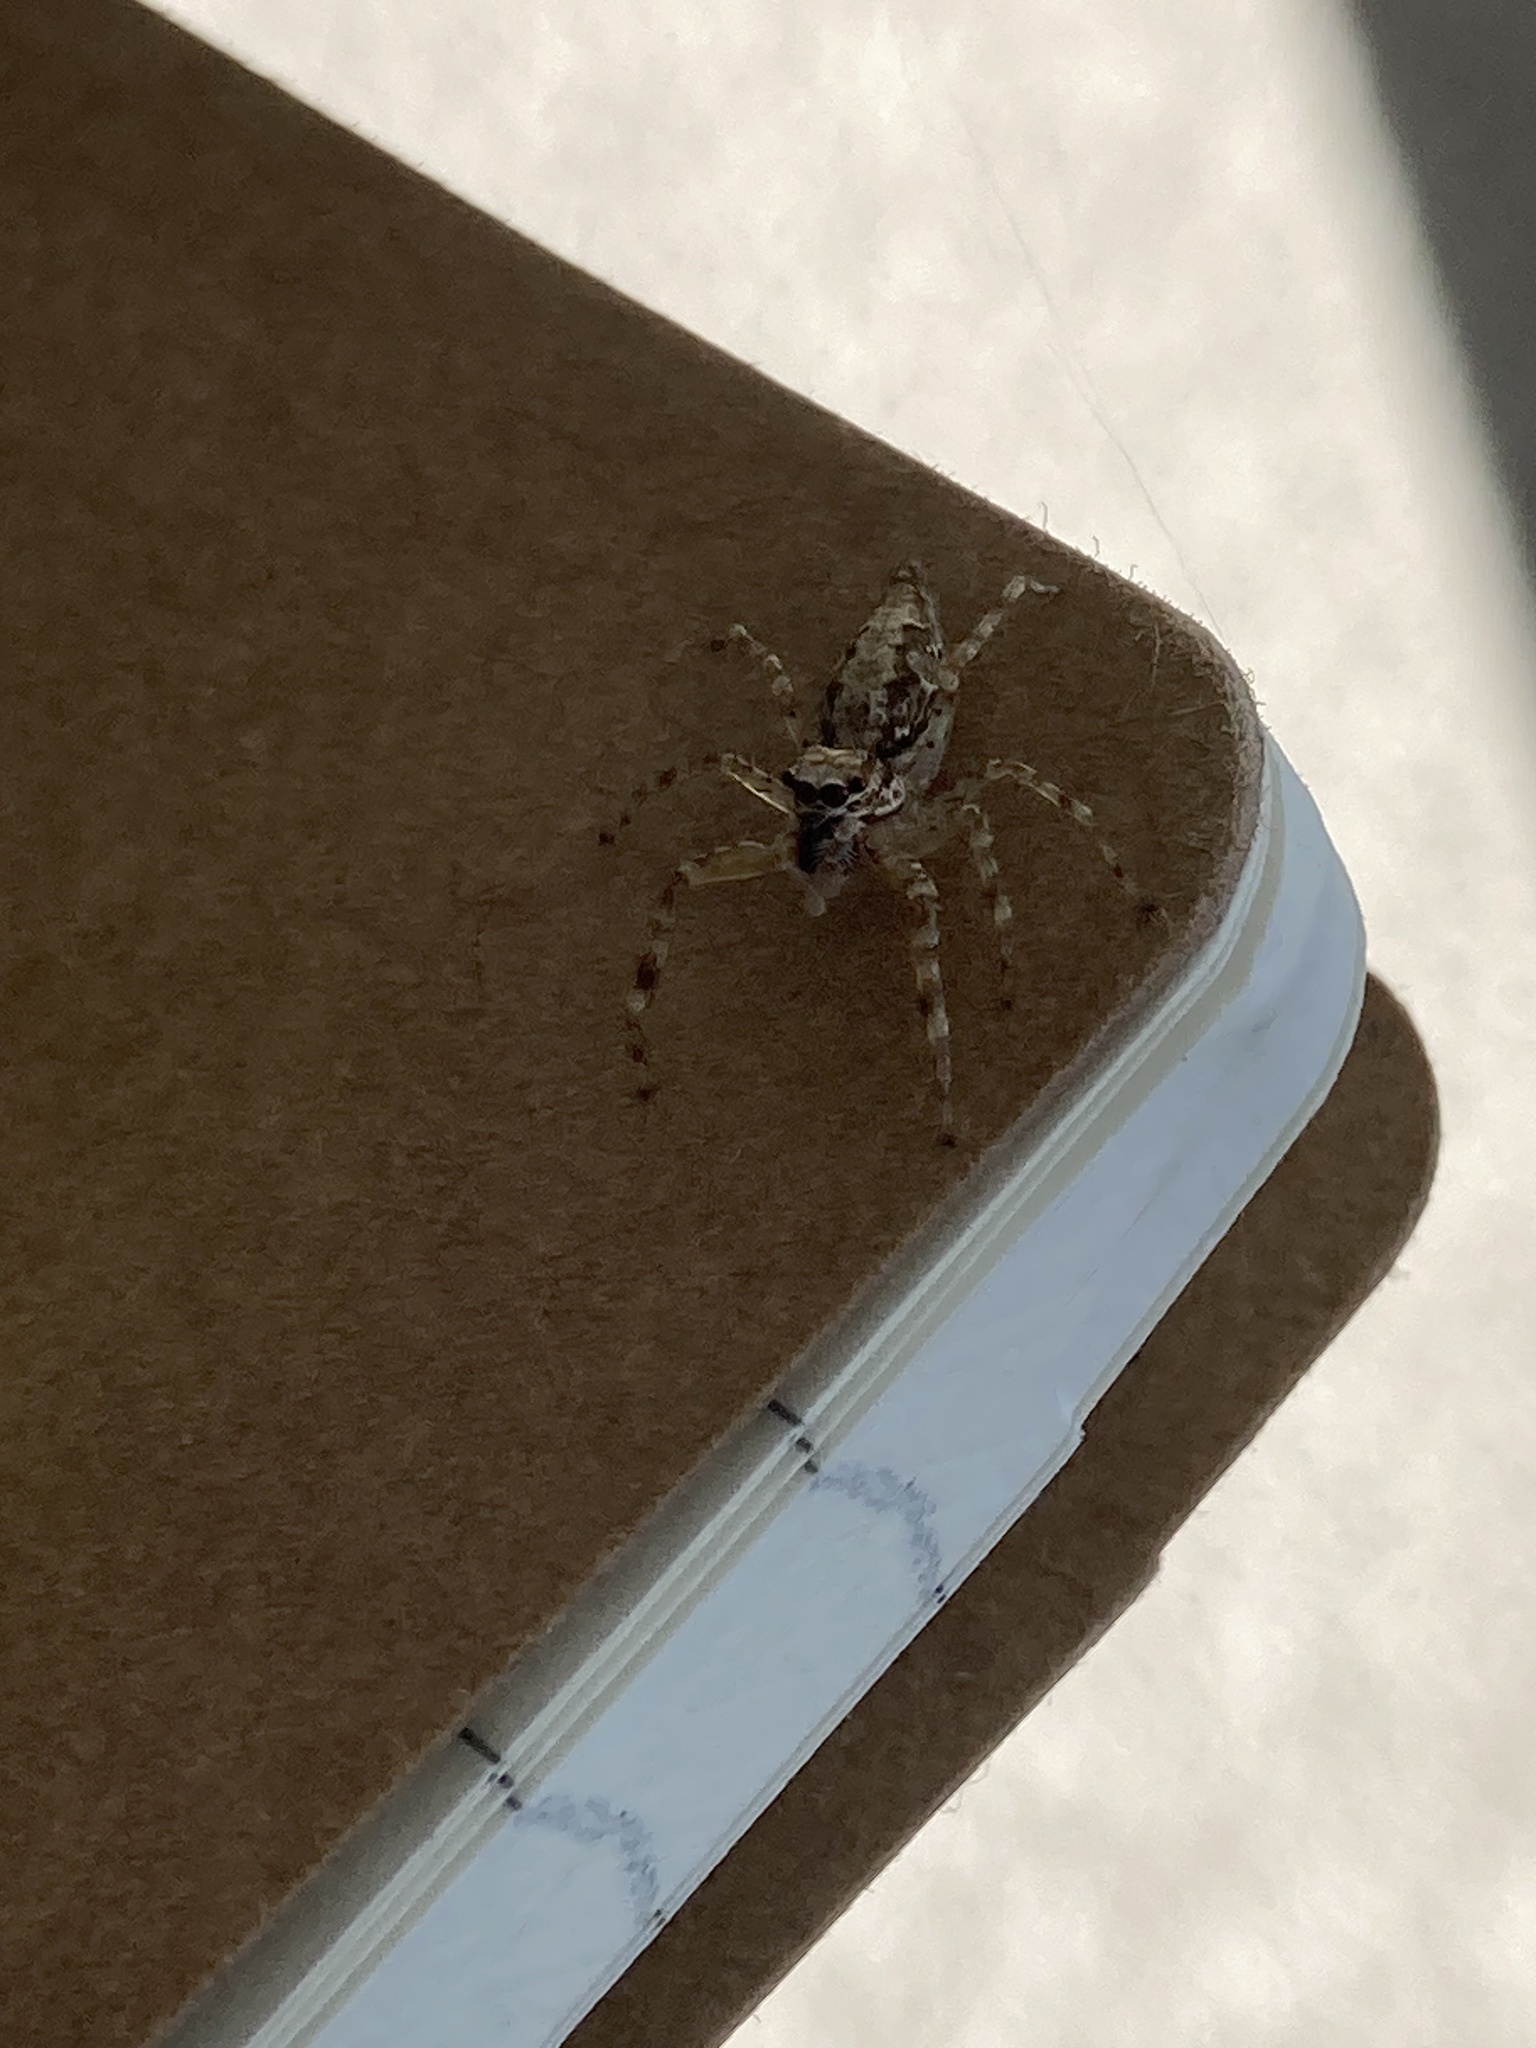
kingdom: Animalia
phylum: Arthropoda
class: Arachnida
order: Araneae
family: Salticidae
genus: Helpis
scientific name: Helpis minitabunda
